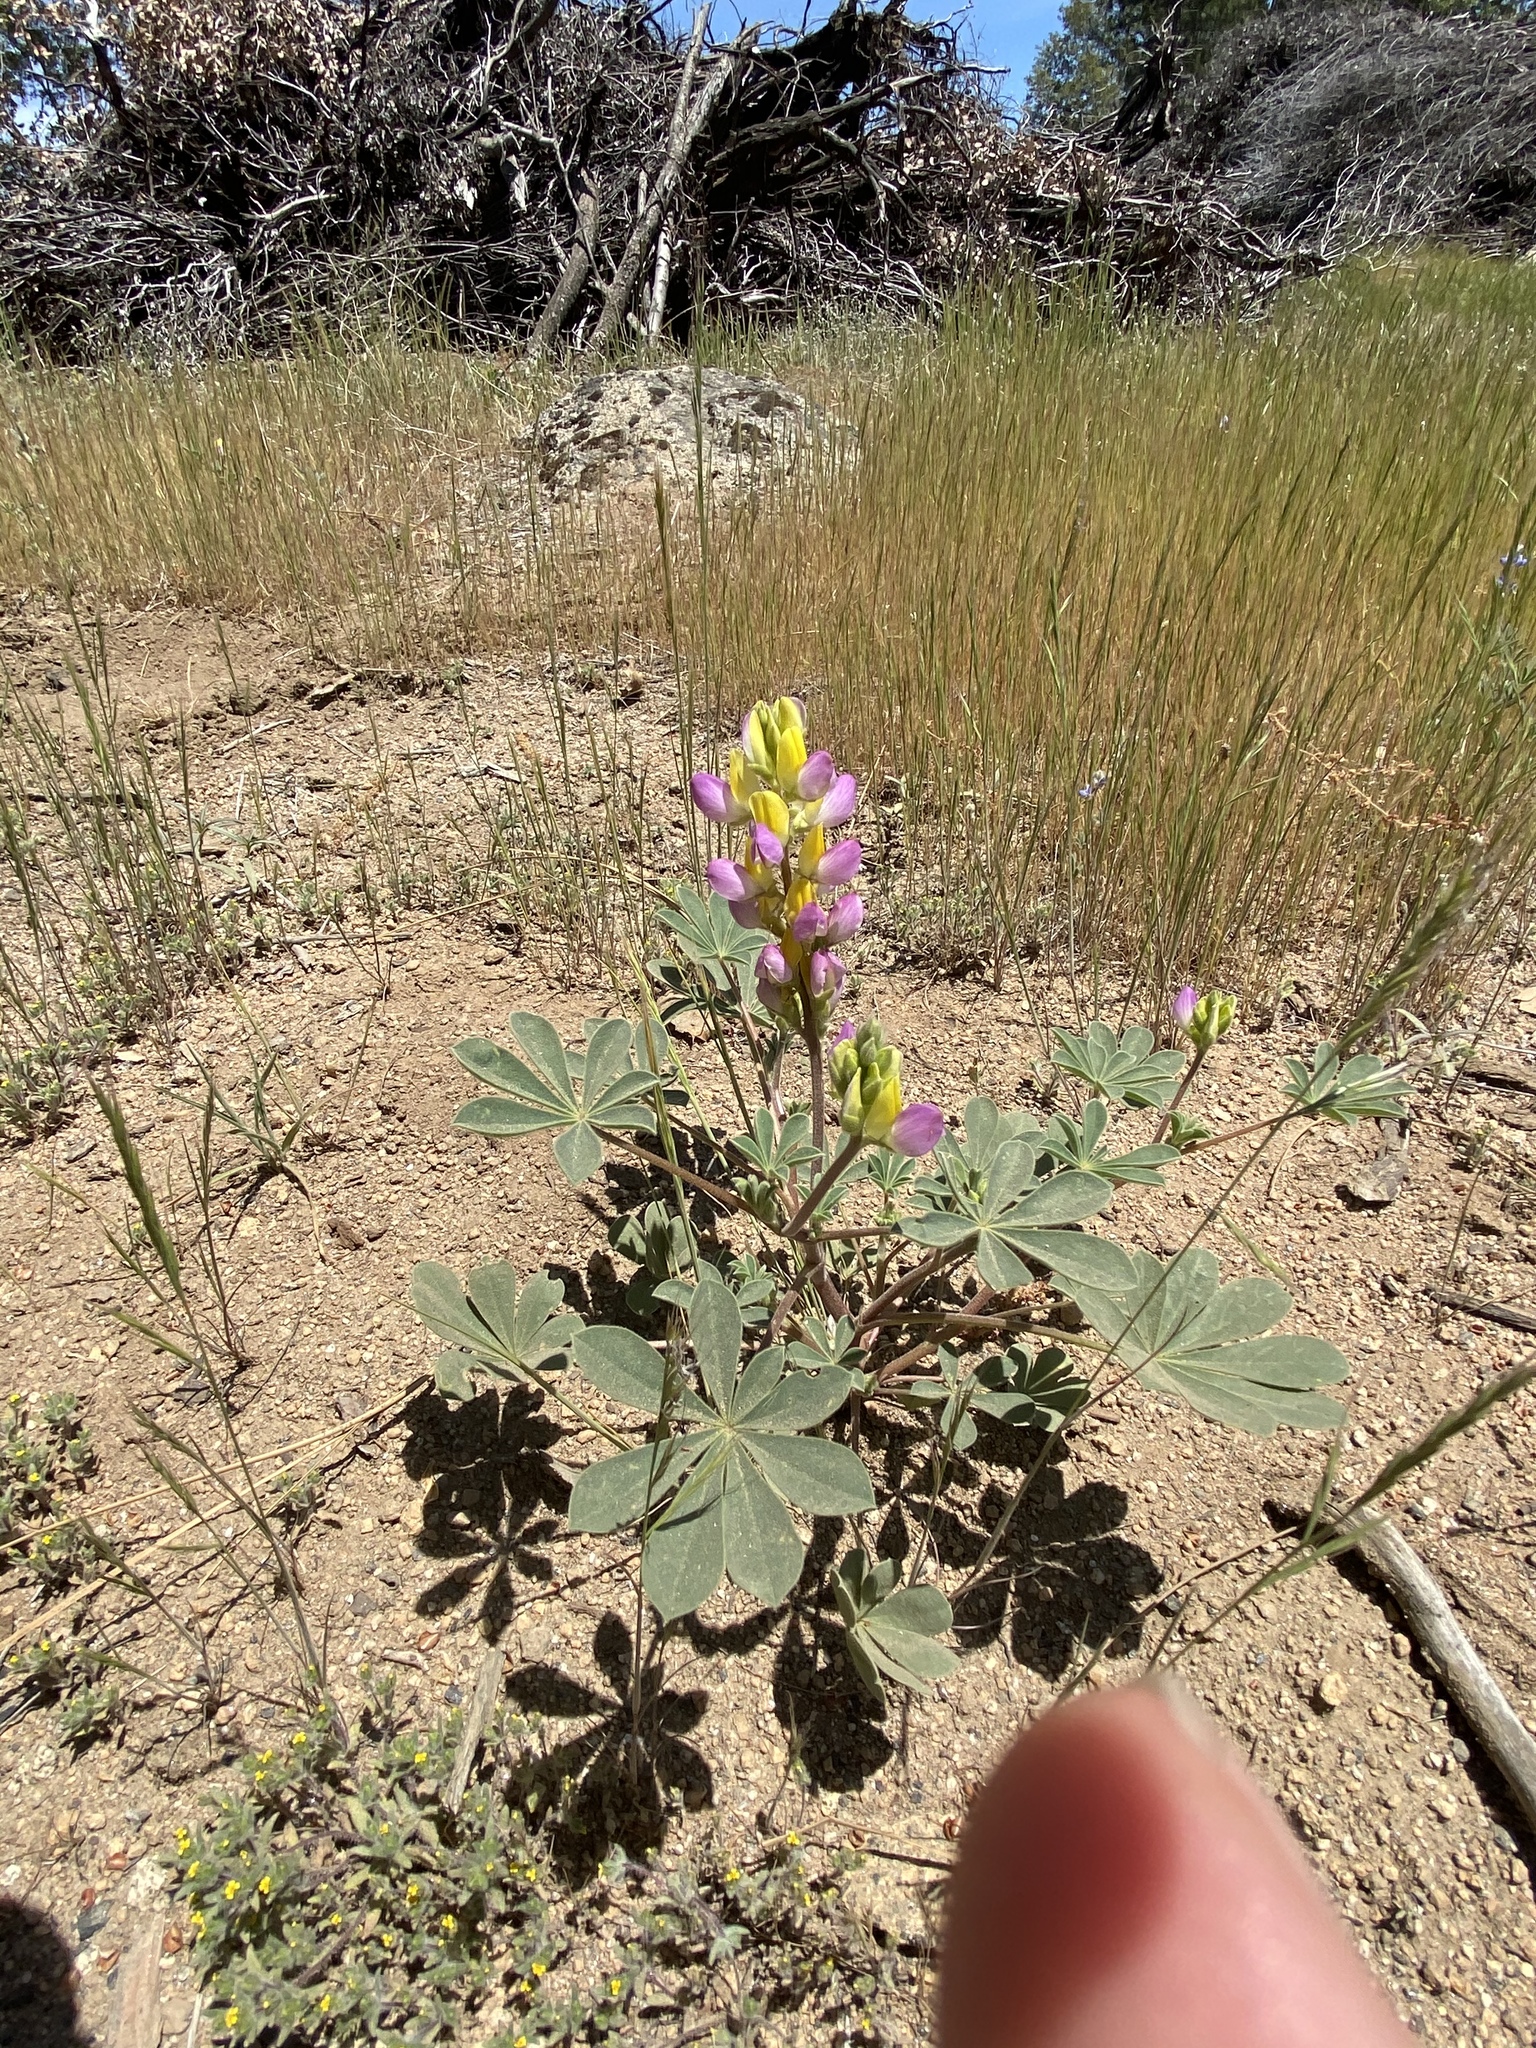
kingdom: Plantae
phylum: Tracheophyta
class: Magnoliopsida
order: Fabales
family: Fabaceae
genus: Lupinus
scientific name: Lupinus stiversii
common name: Harlequin lupine
